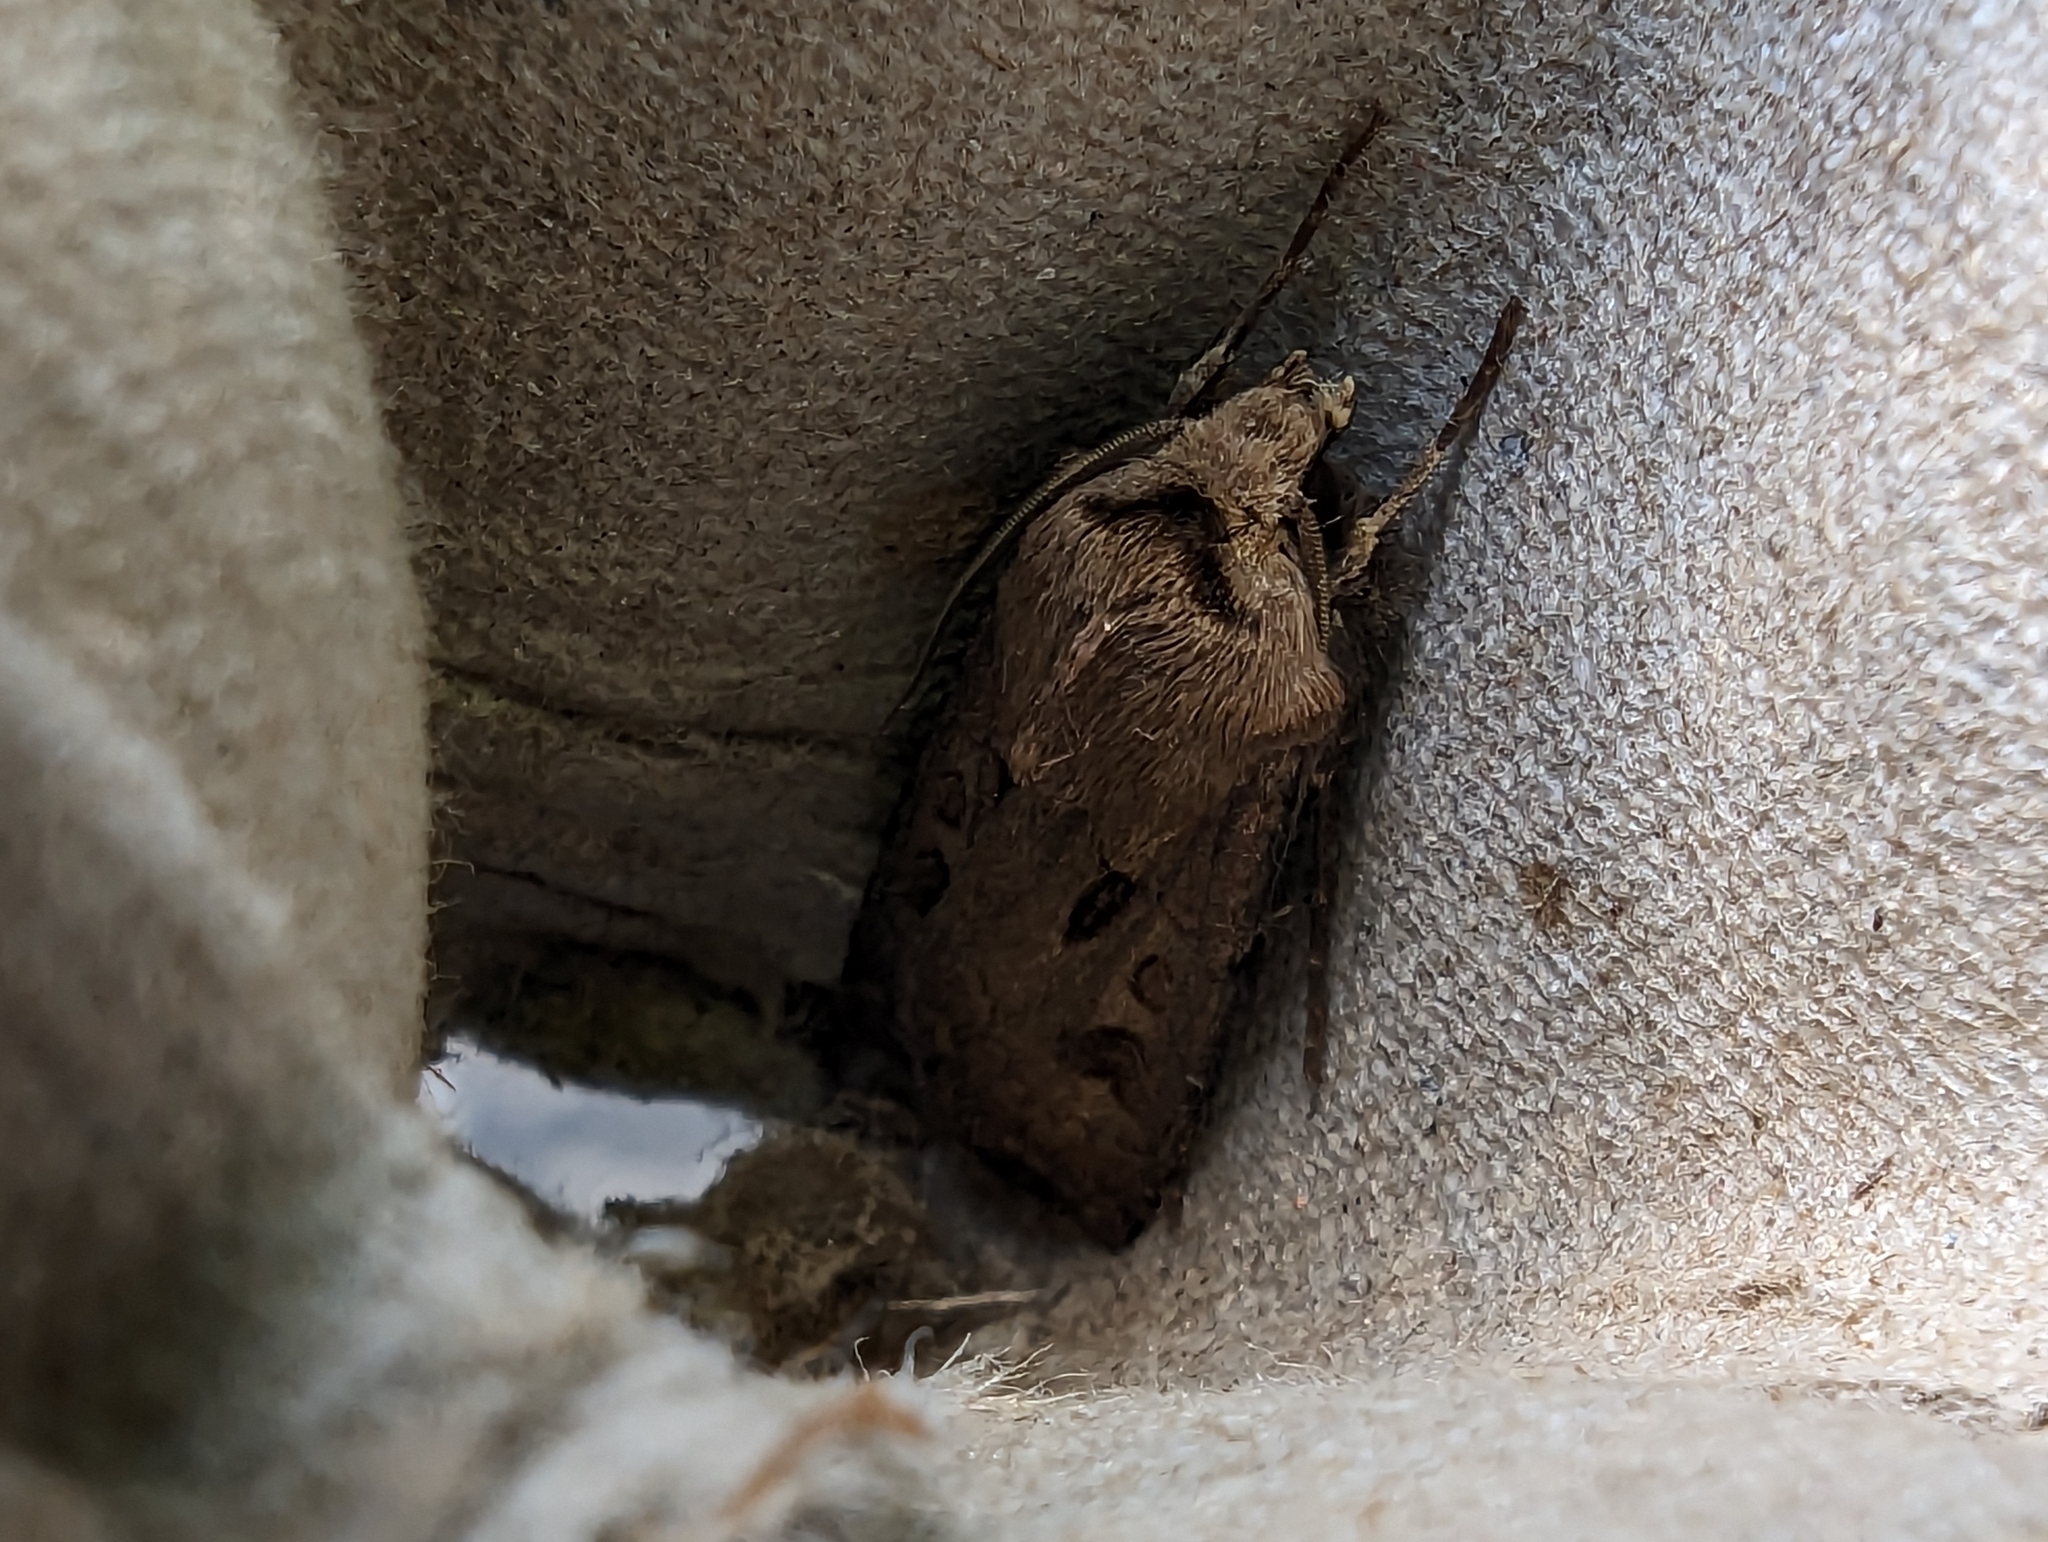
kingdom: Animalia
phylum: Arthropoda
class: Insecta
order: Lepidoptera
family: Noctuidae
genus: Agrotis
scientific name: Agrotis exclamationis
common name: Heart and dart
